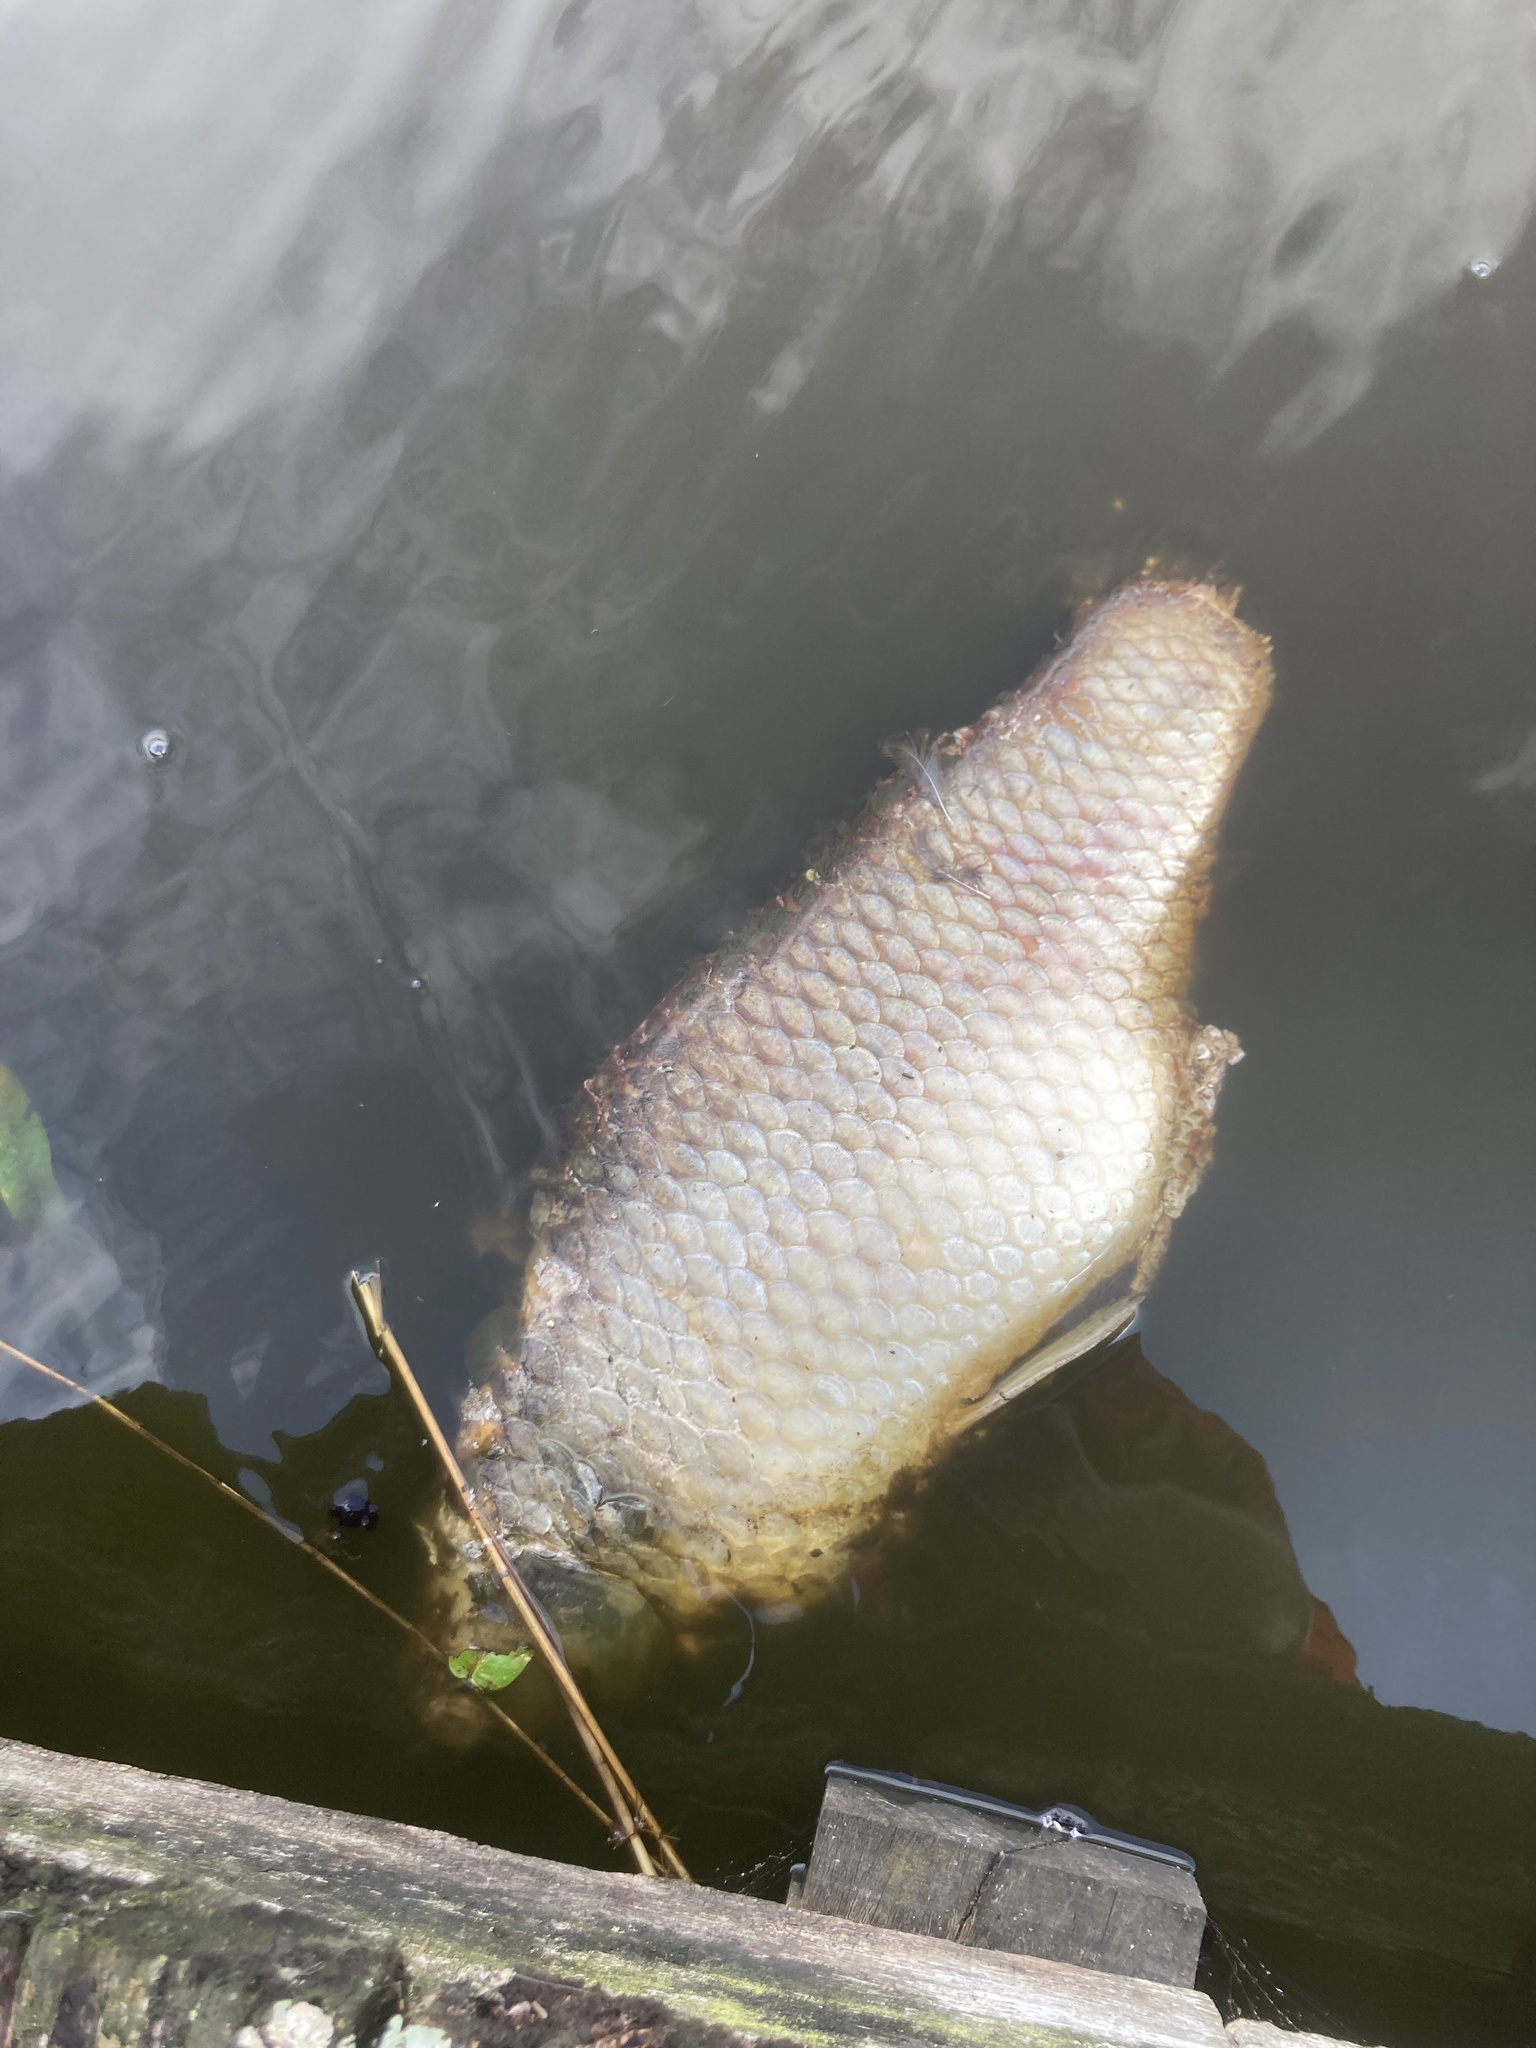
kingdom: Animalia
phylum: Chordata
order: Cypriniformes
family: Cyprinidae
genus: Cyprinus
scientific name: Cyprinus carpio
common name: Common carp
